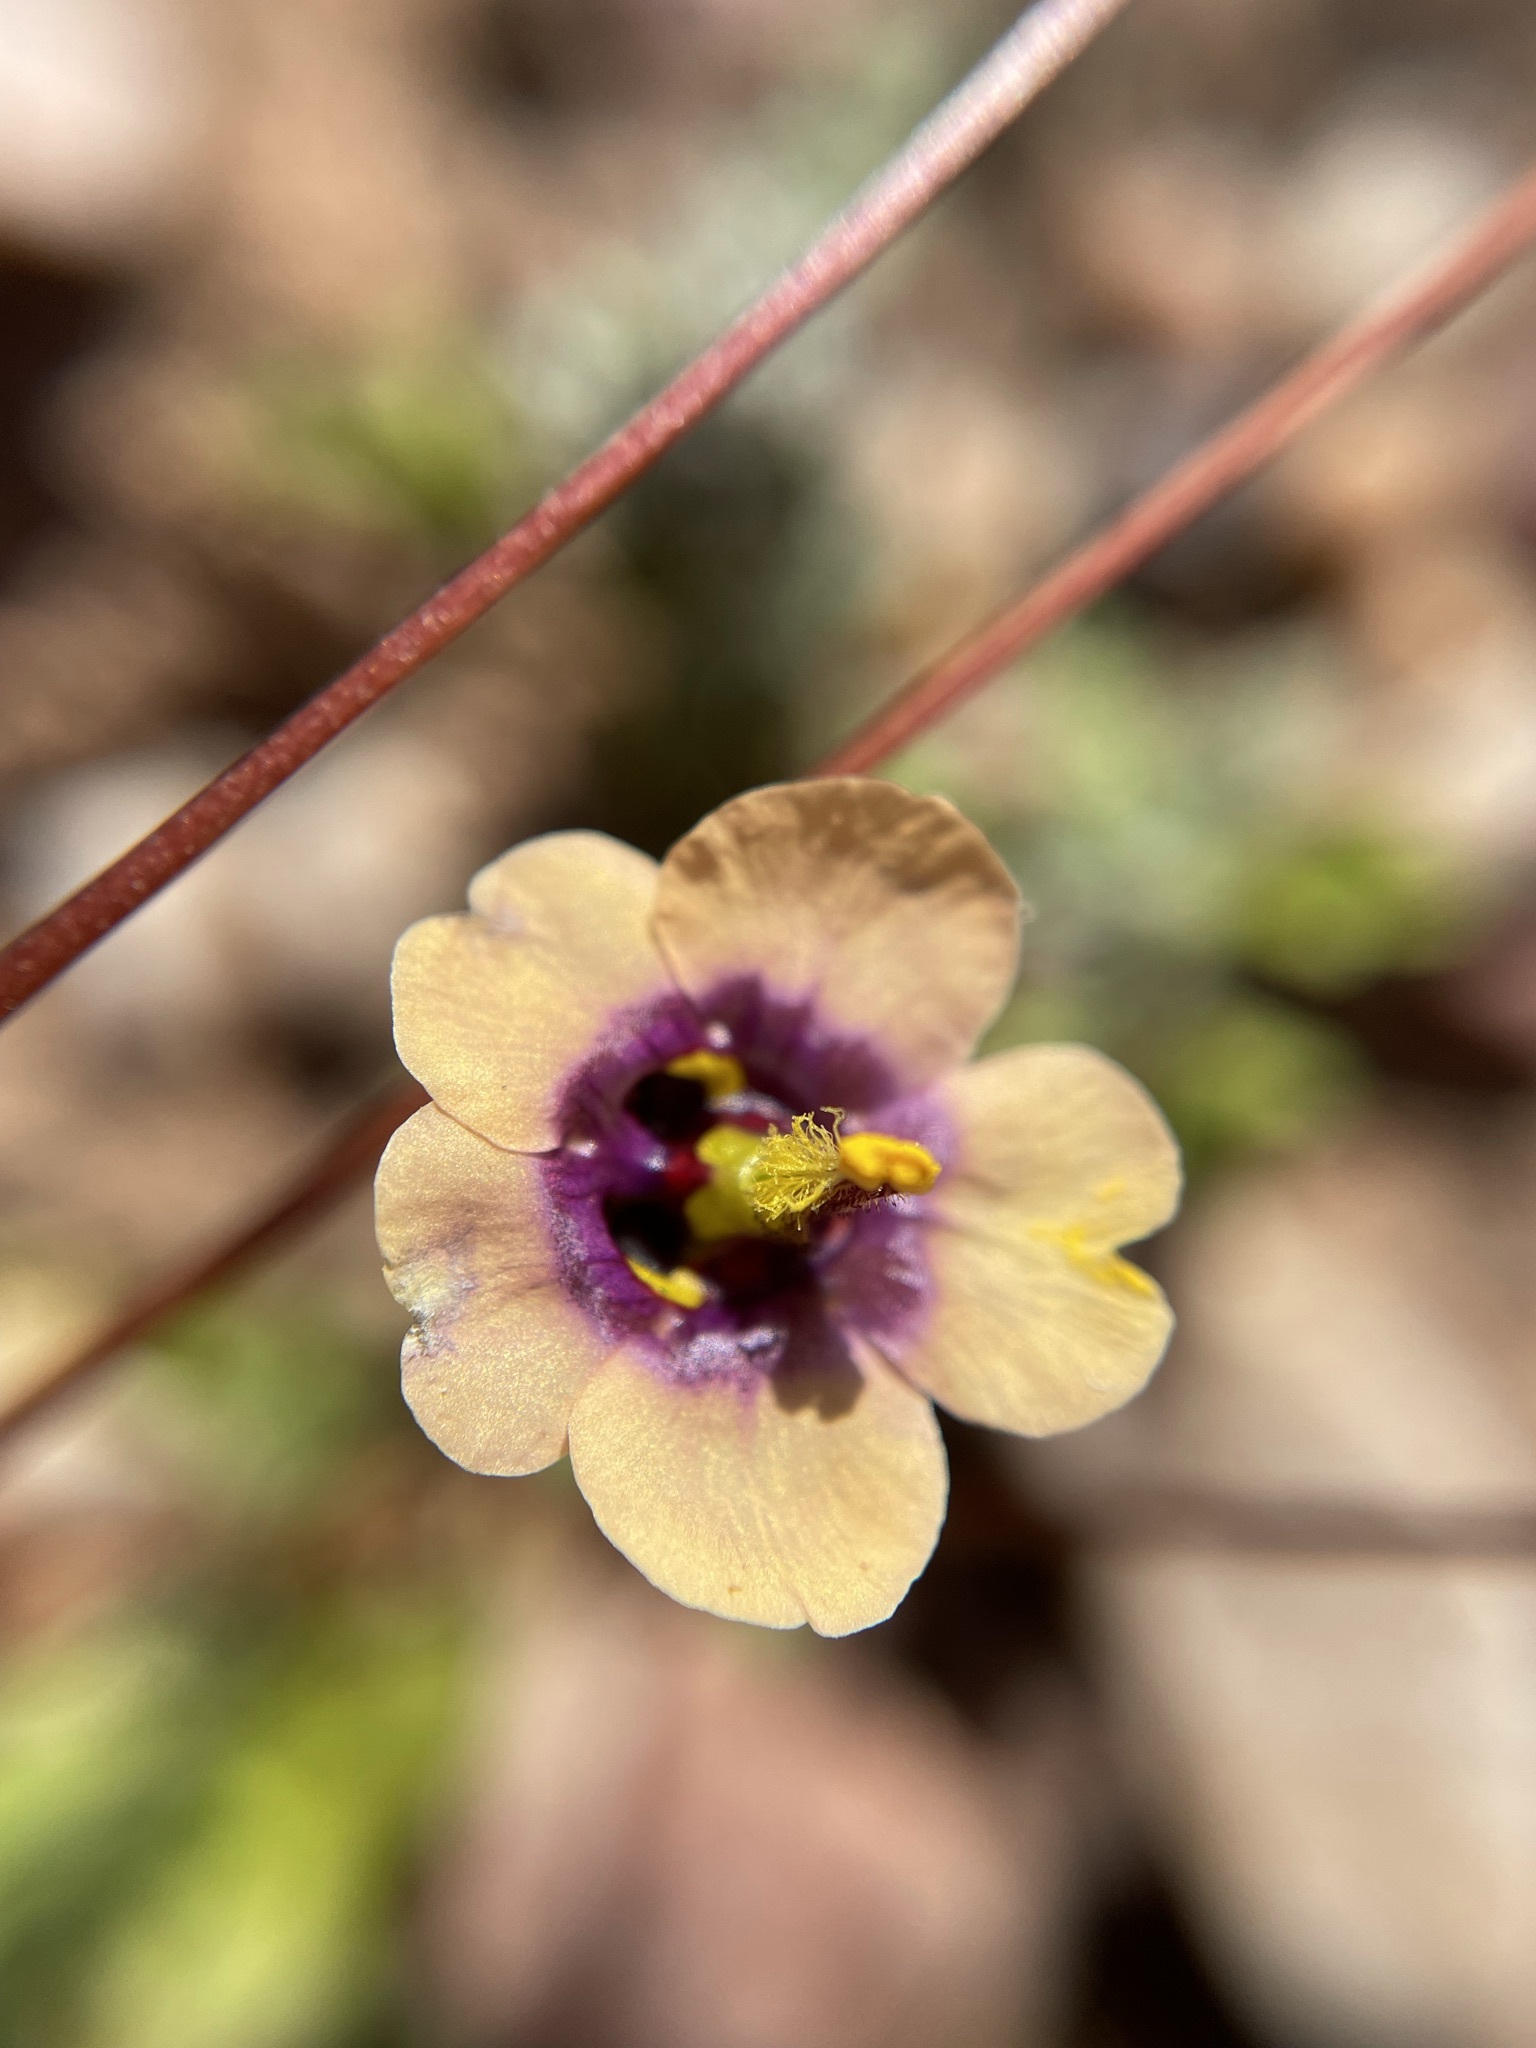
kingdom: Plantae
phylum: Tracheophyta
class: Magnoliopsida
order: Lamiales
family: Scrophulariaceae
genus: Diascia
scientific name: Diascia bicolor
